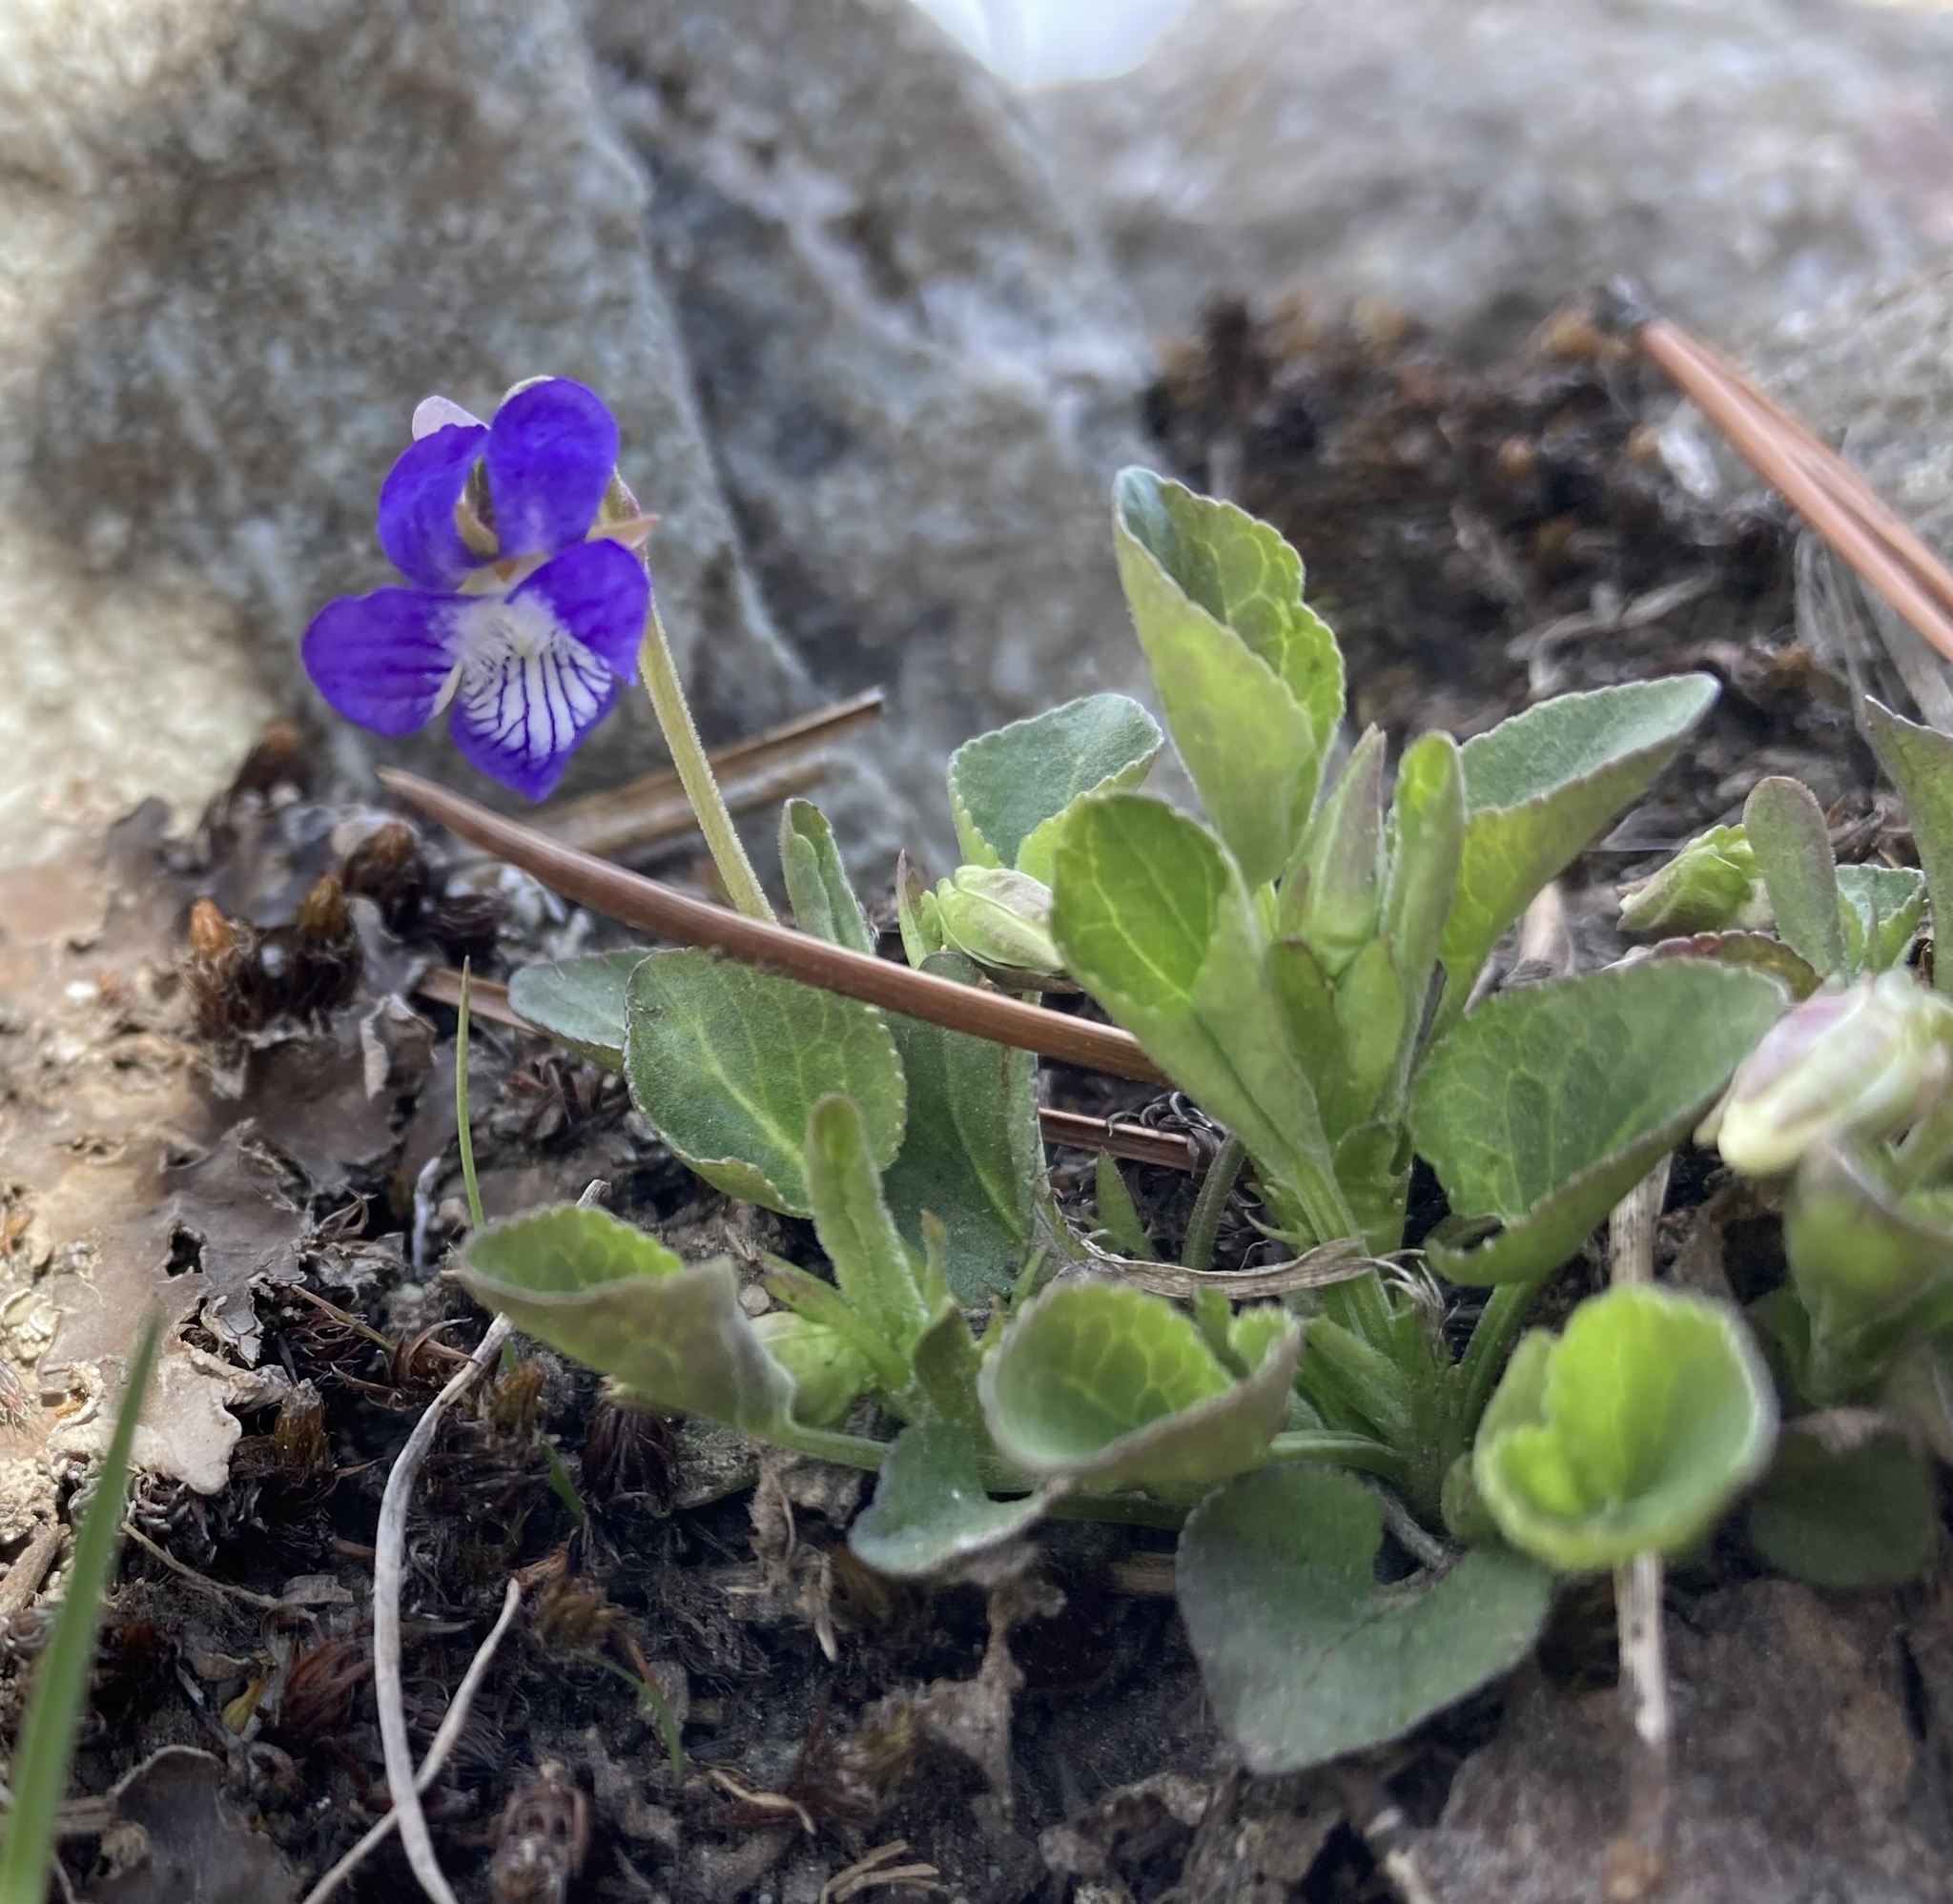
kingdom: Plantae
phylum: Tracheophyta
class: Magnoliopsida
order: Malpighiales
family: Violaceae
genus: Viola
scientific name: Viola adunca
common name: Sand violet
